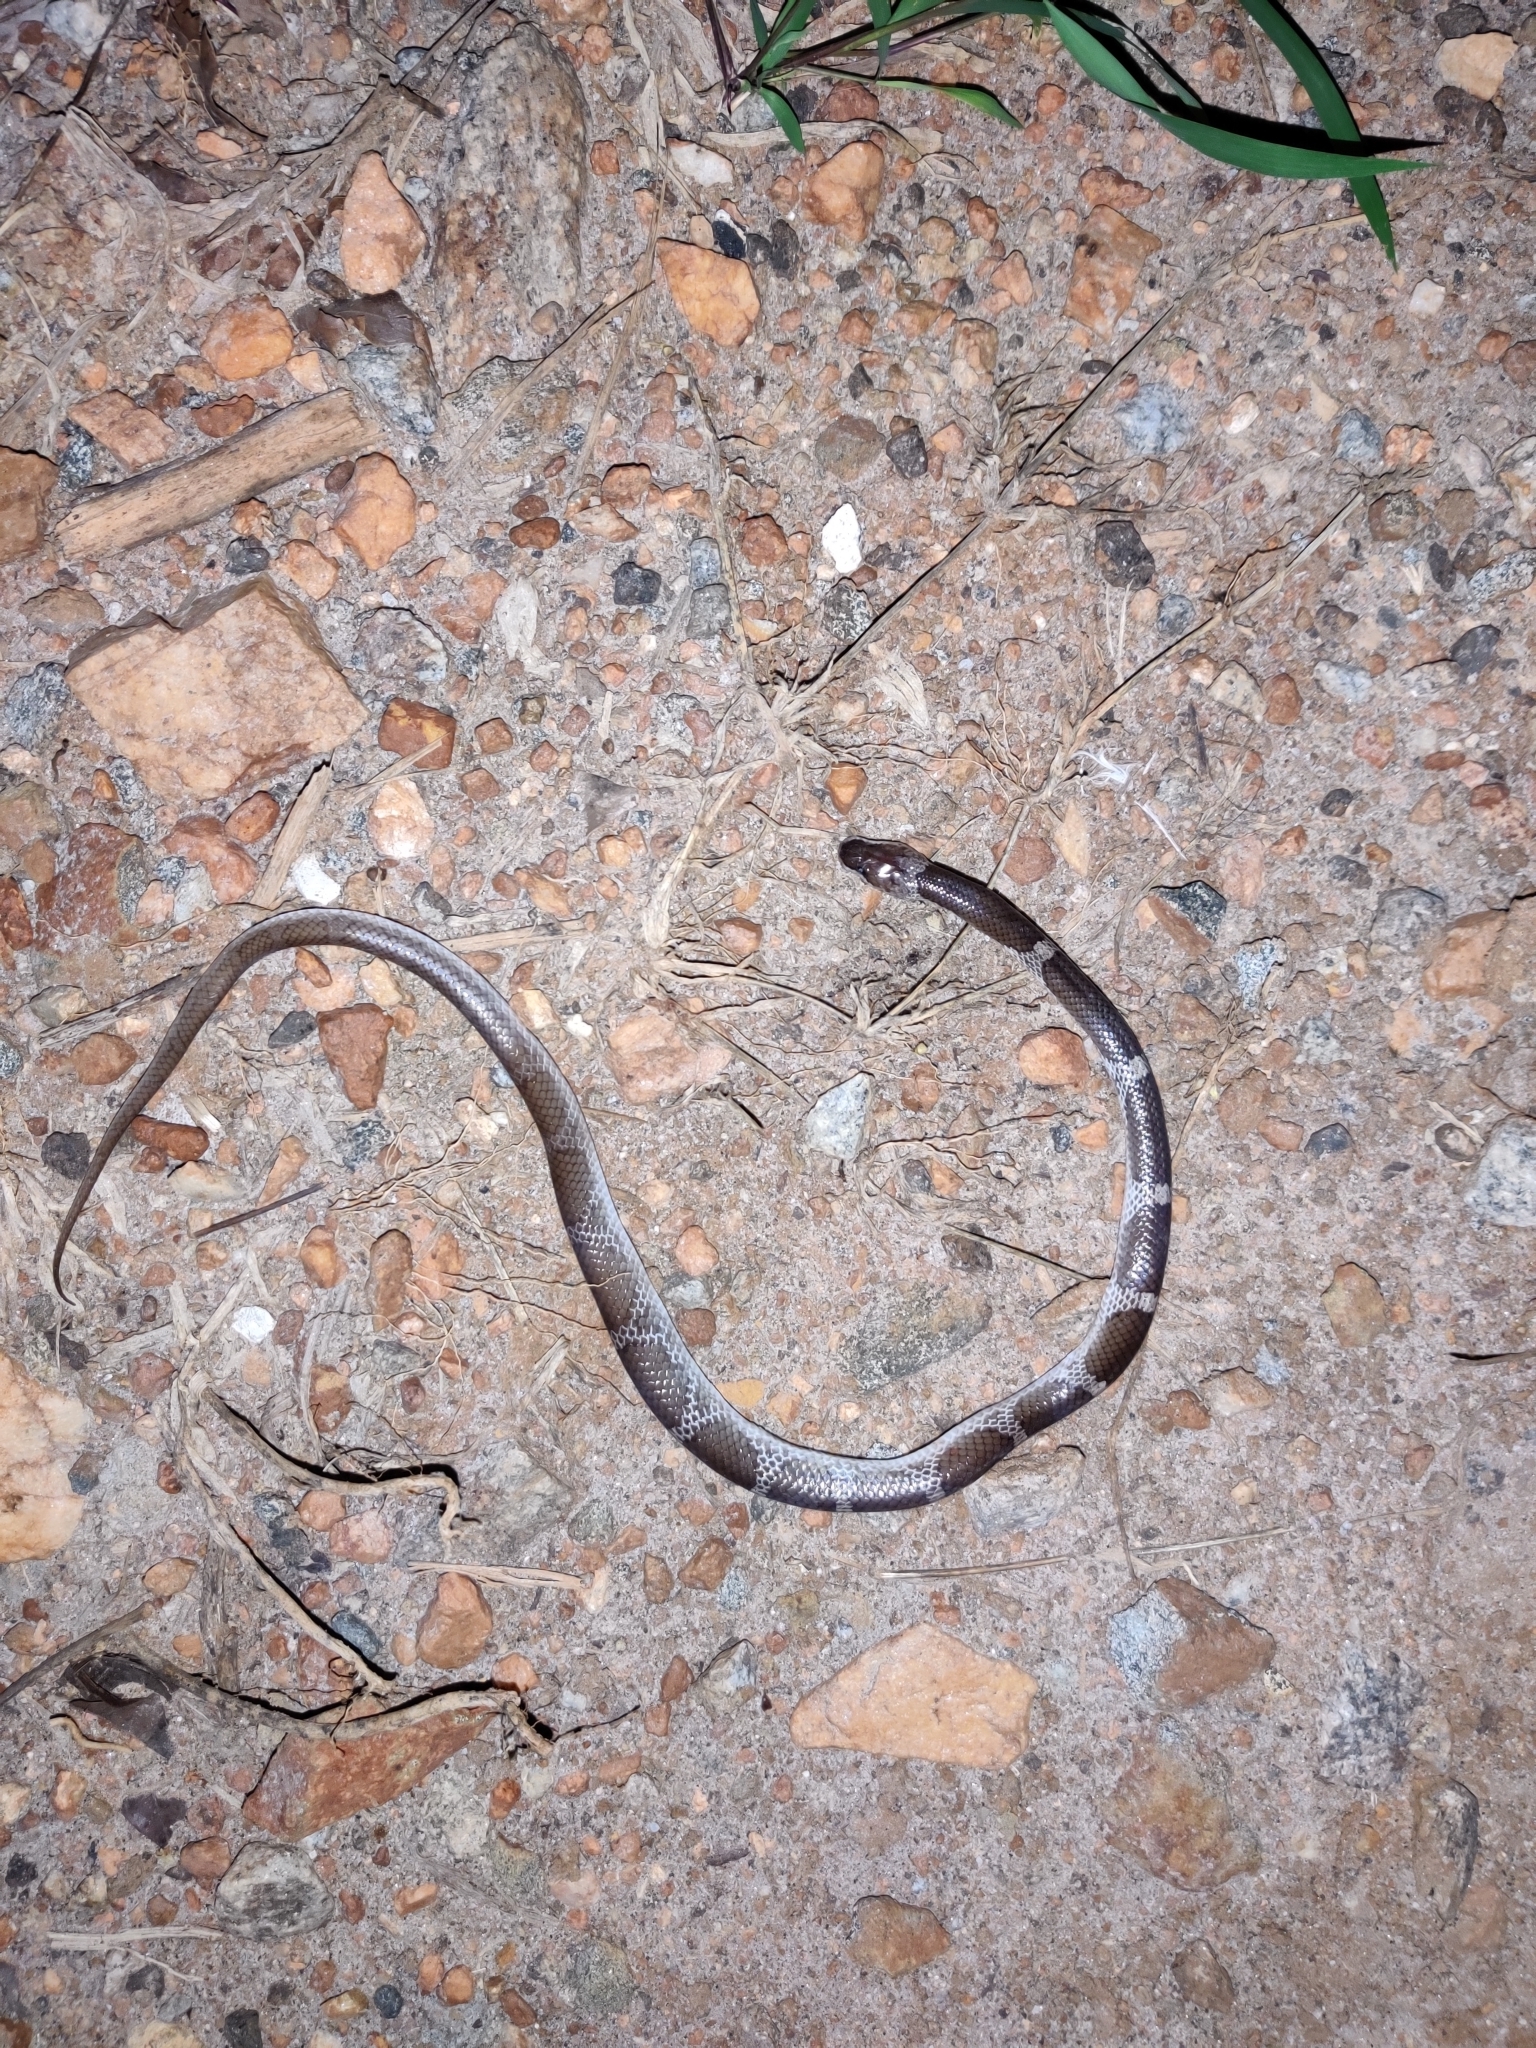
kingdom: Animalia
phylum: Chordata
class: Squamata
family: Colubridae
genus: Lycodon
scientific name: Lycodon aulicus
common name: Common wolf snake
